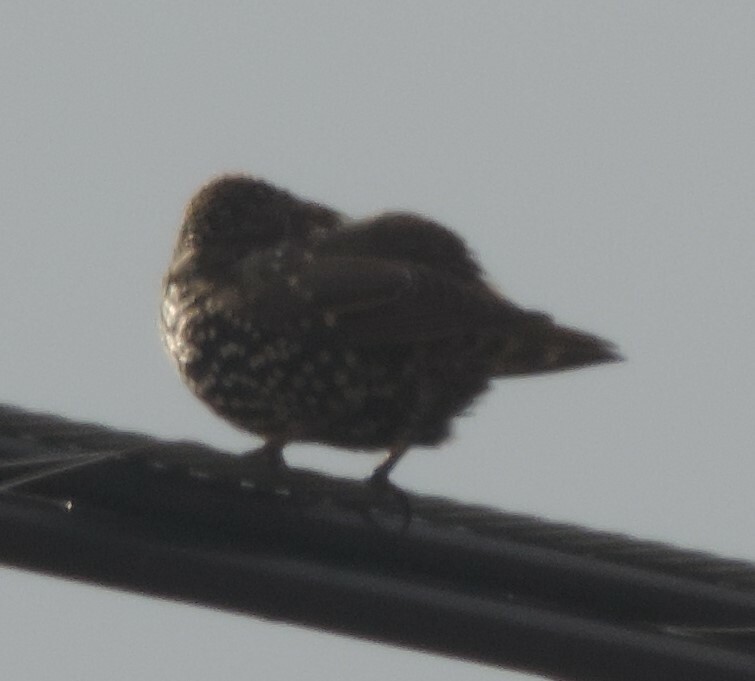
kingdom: Animalia
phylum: Chordata
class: Aves
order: Passeriformes
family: Sturnidae
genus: Sturnus
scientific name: Sturnus vulgaris
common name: Common starling
